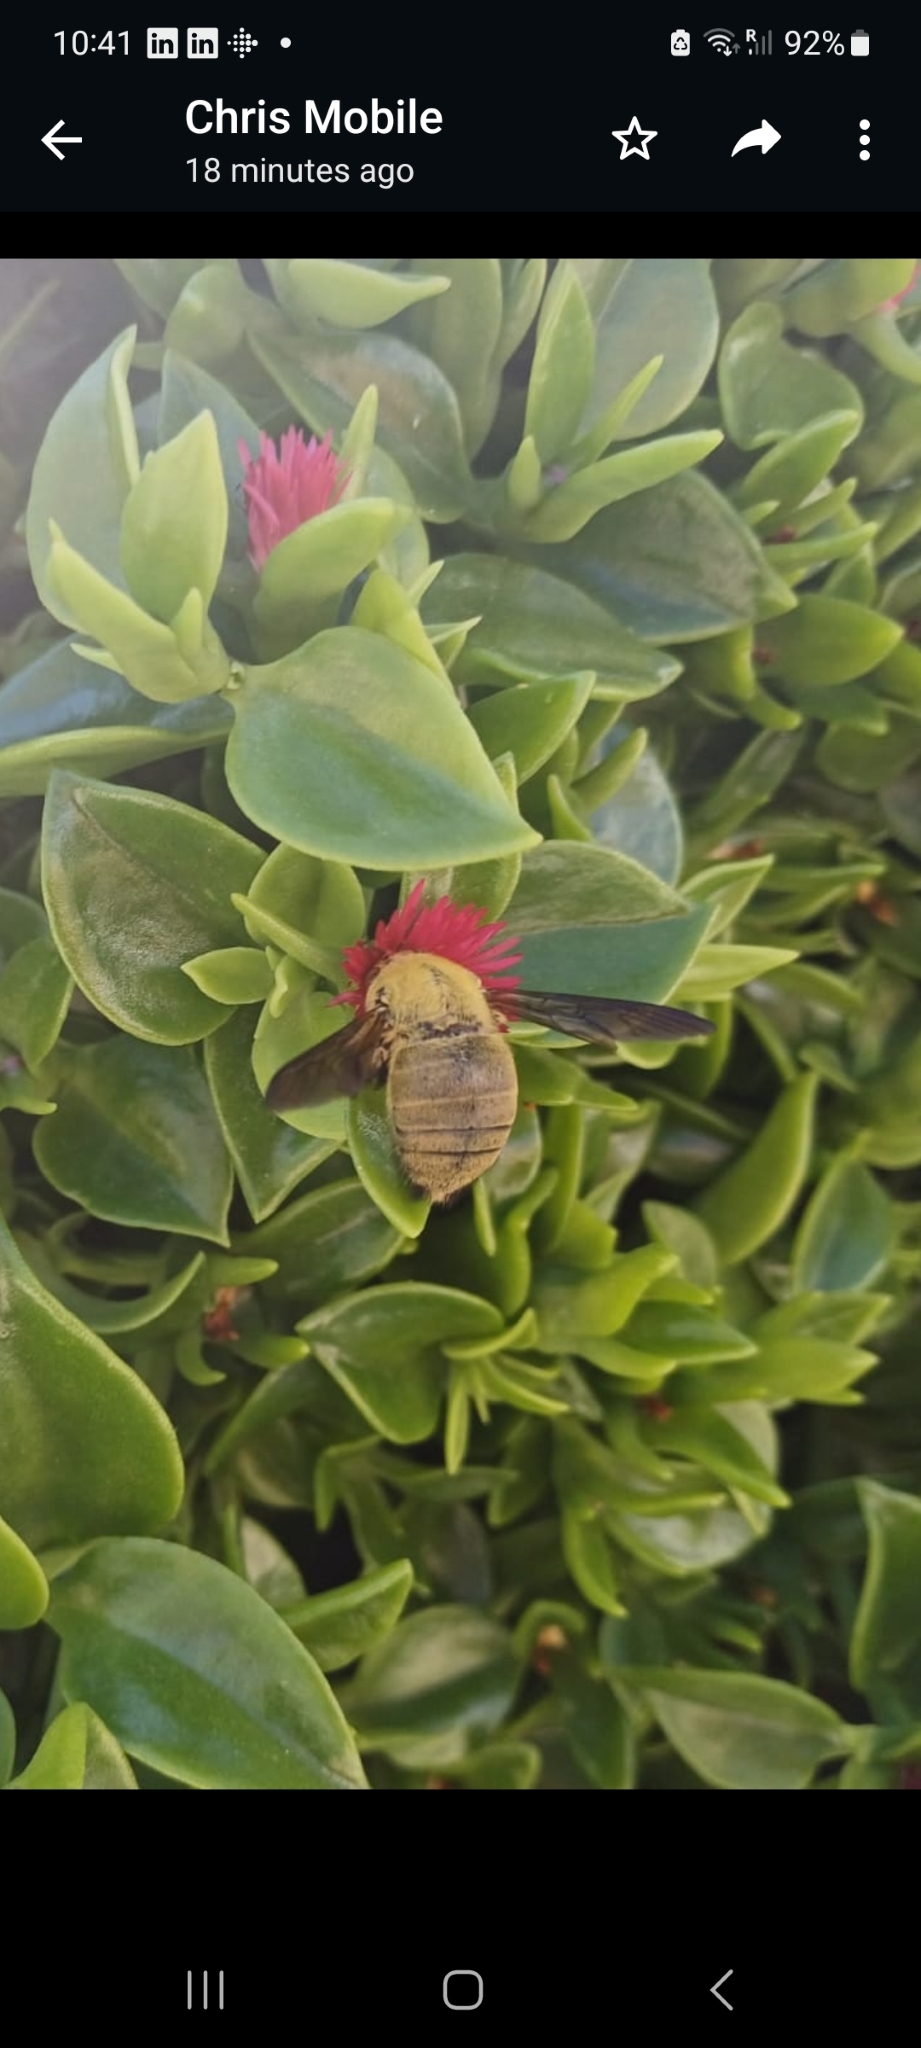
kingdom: Animalia
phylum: Arthropoda
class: Insecta
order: Hymenoptera
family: Apidae
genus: Xylocopa
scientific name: Xylocopa pubescens
